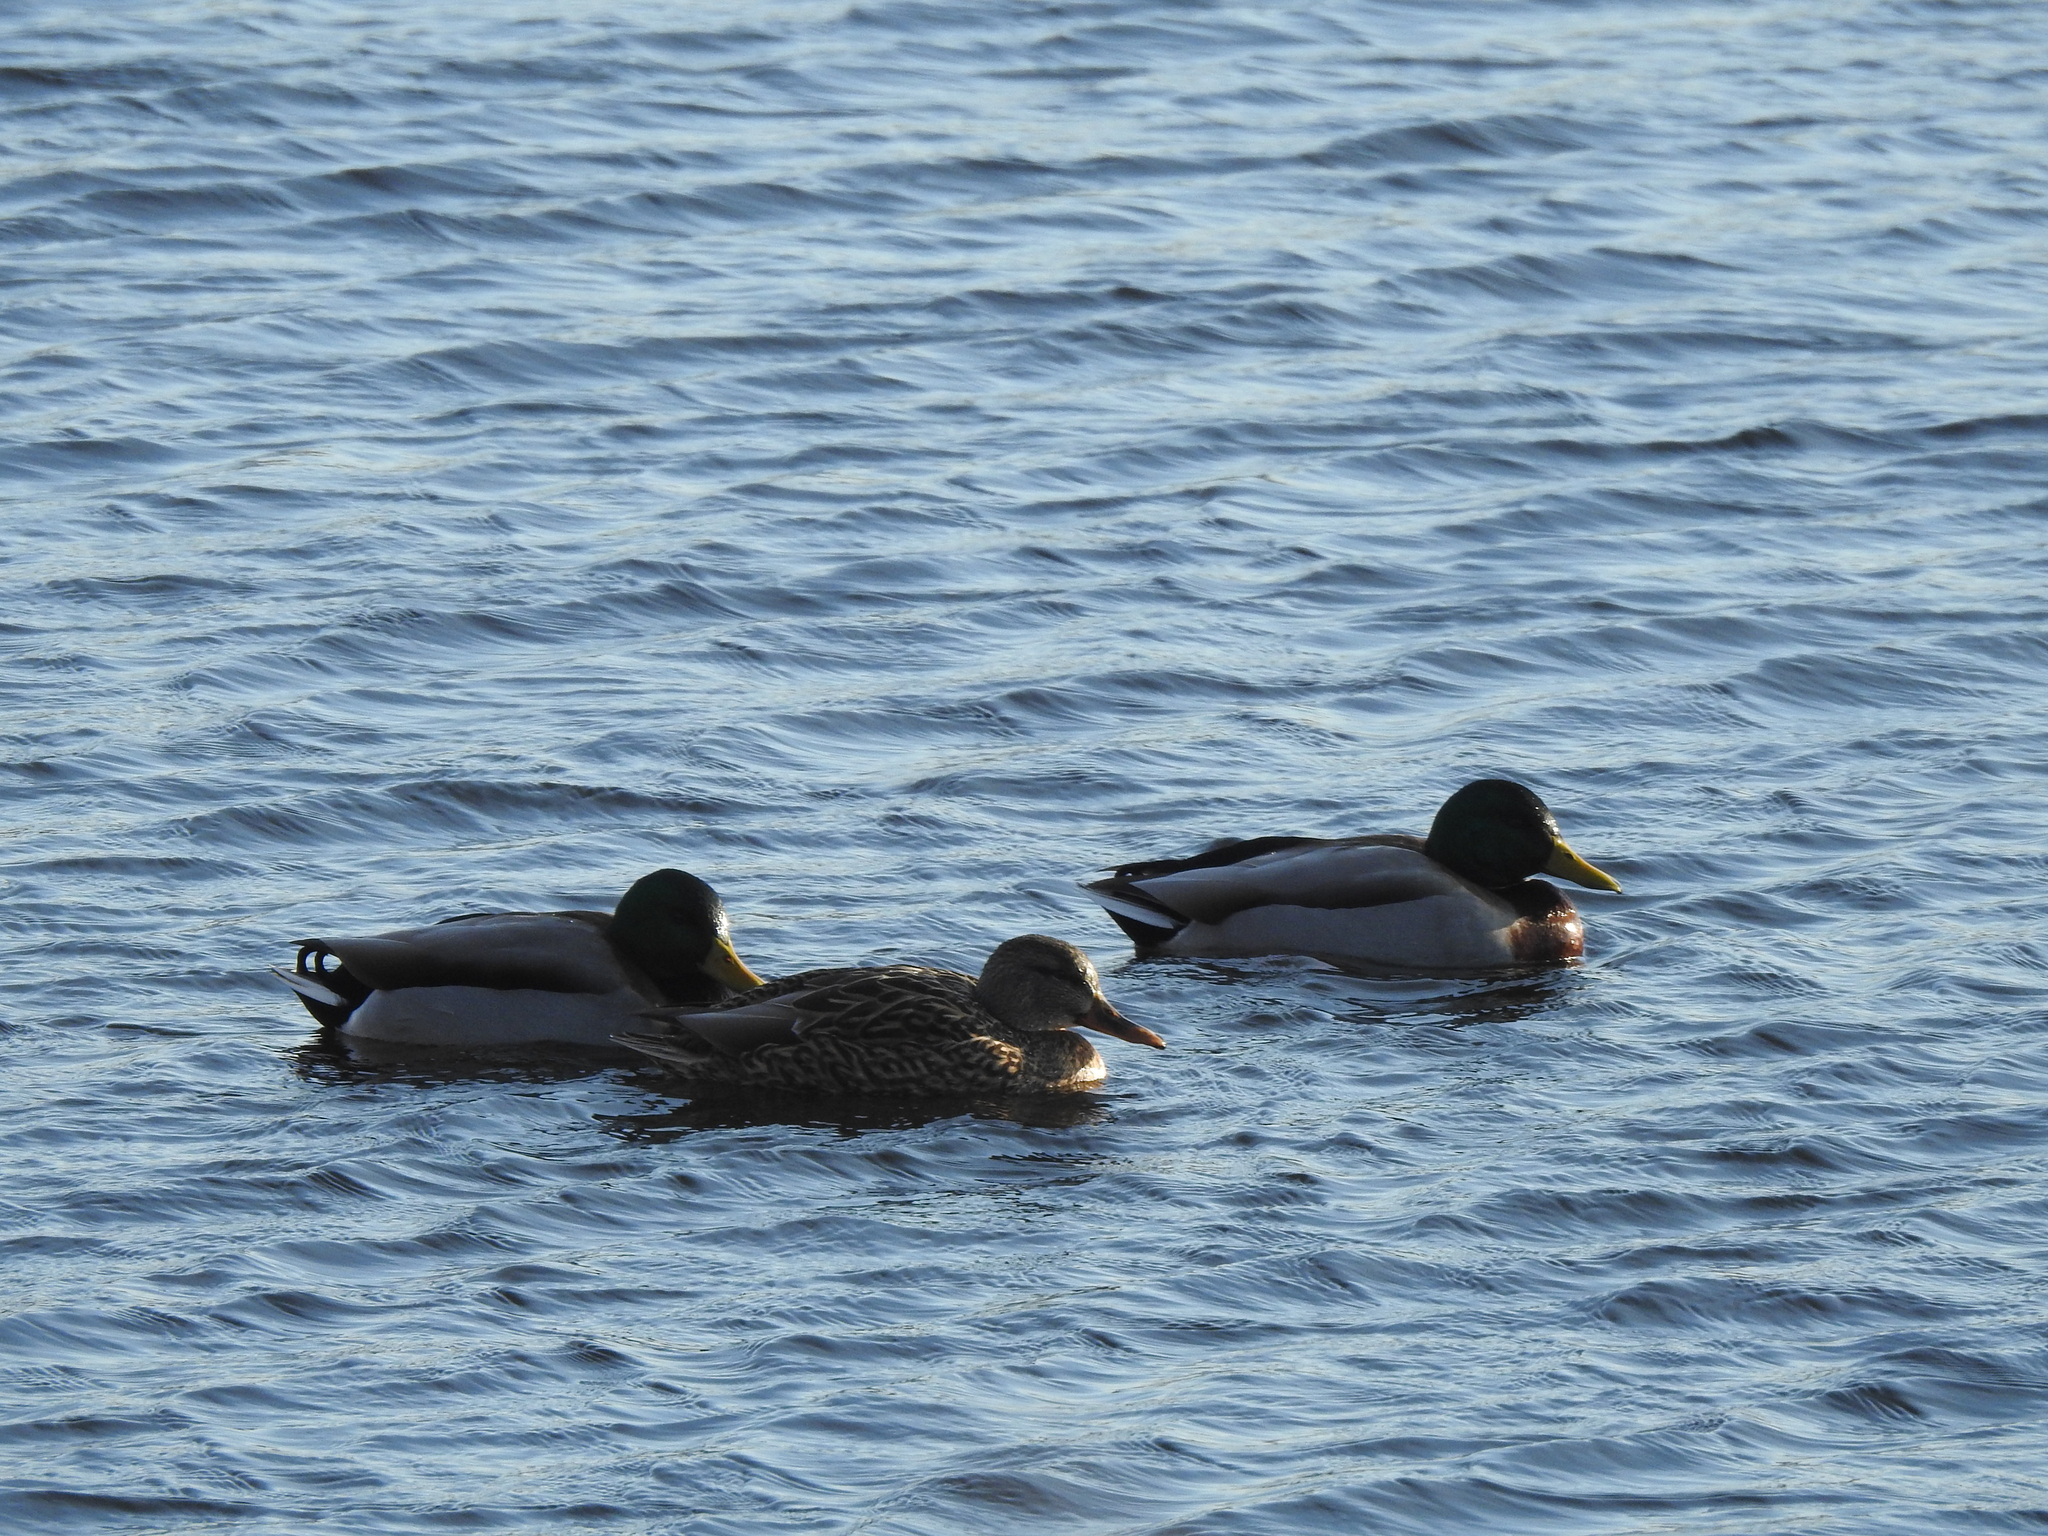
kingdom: Animalia
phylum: Chordata
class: Aves
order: Anseriformes
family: Anatidae
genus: Anas
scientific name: Anas platyrhynchos
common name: Mallard
